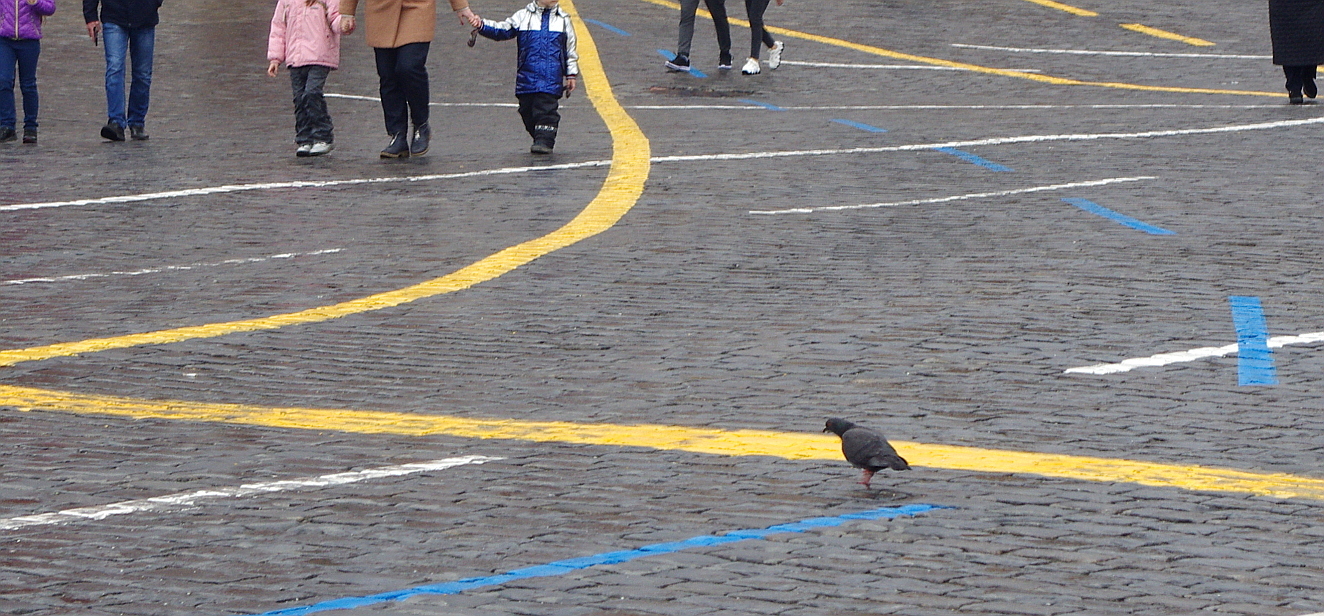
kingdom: Animalia
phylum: Chordata
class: Aves
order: Columbiformes
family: Columbidae
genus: Columba
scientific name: Columba livia
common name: Rock pigeon
